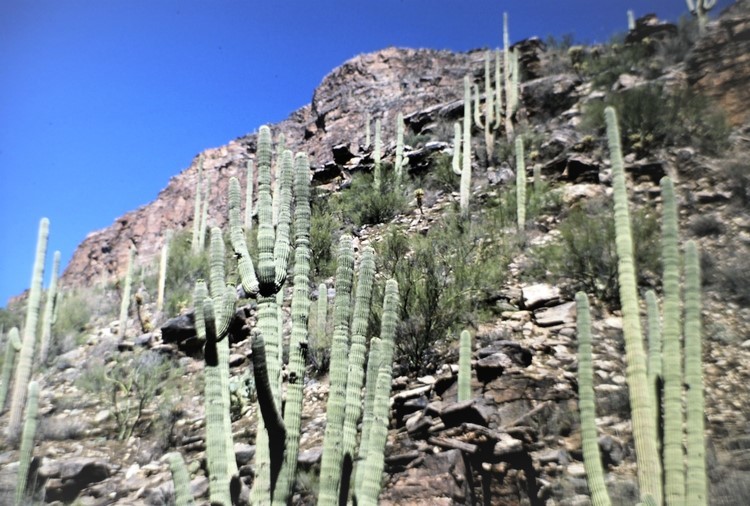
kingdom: Plantae
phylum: Tracheophyta
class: Magnoliopsida
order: Caryophyllales
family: Cactaceae
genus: Carnegiea
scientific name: Carnegiea gigantea
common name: Saguaro
